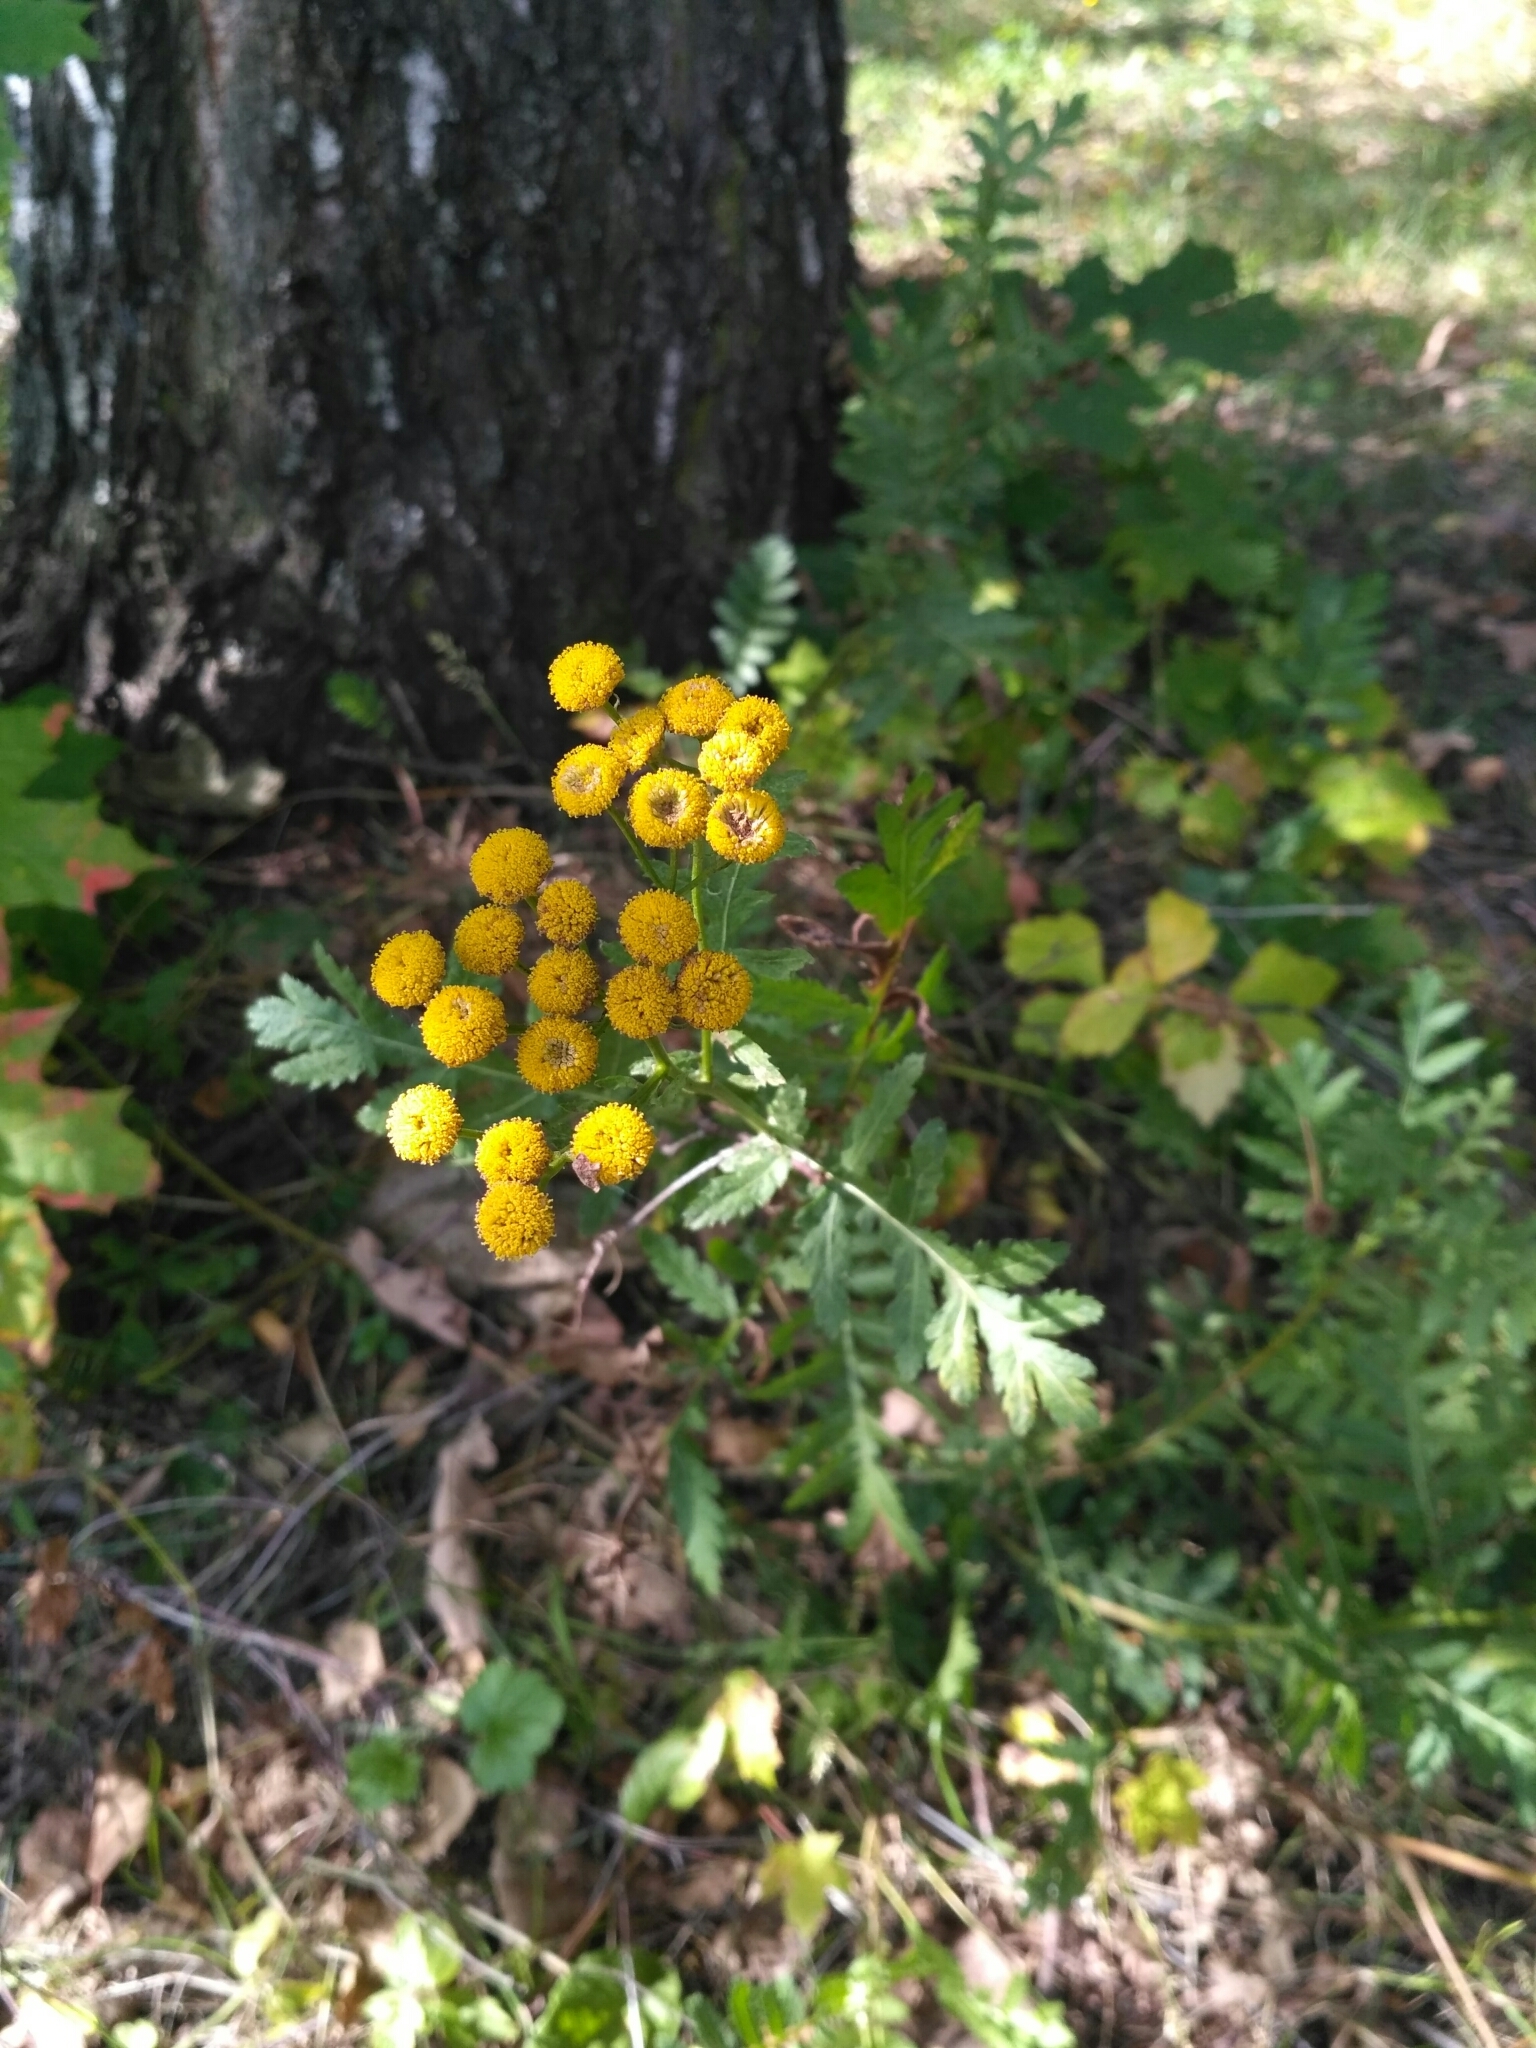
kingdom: Plantae
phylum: Tracheophyta
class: Magnoliopsida
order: Asterales
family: Asteraceae
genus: Tanacetum
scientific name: Tanacetum vulgare
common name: Common tansy
